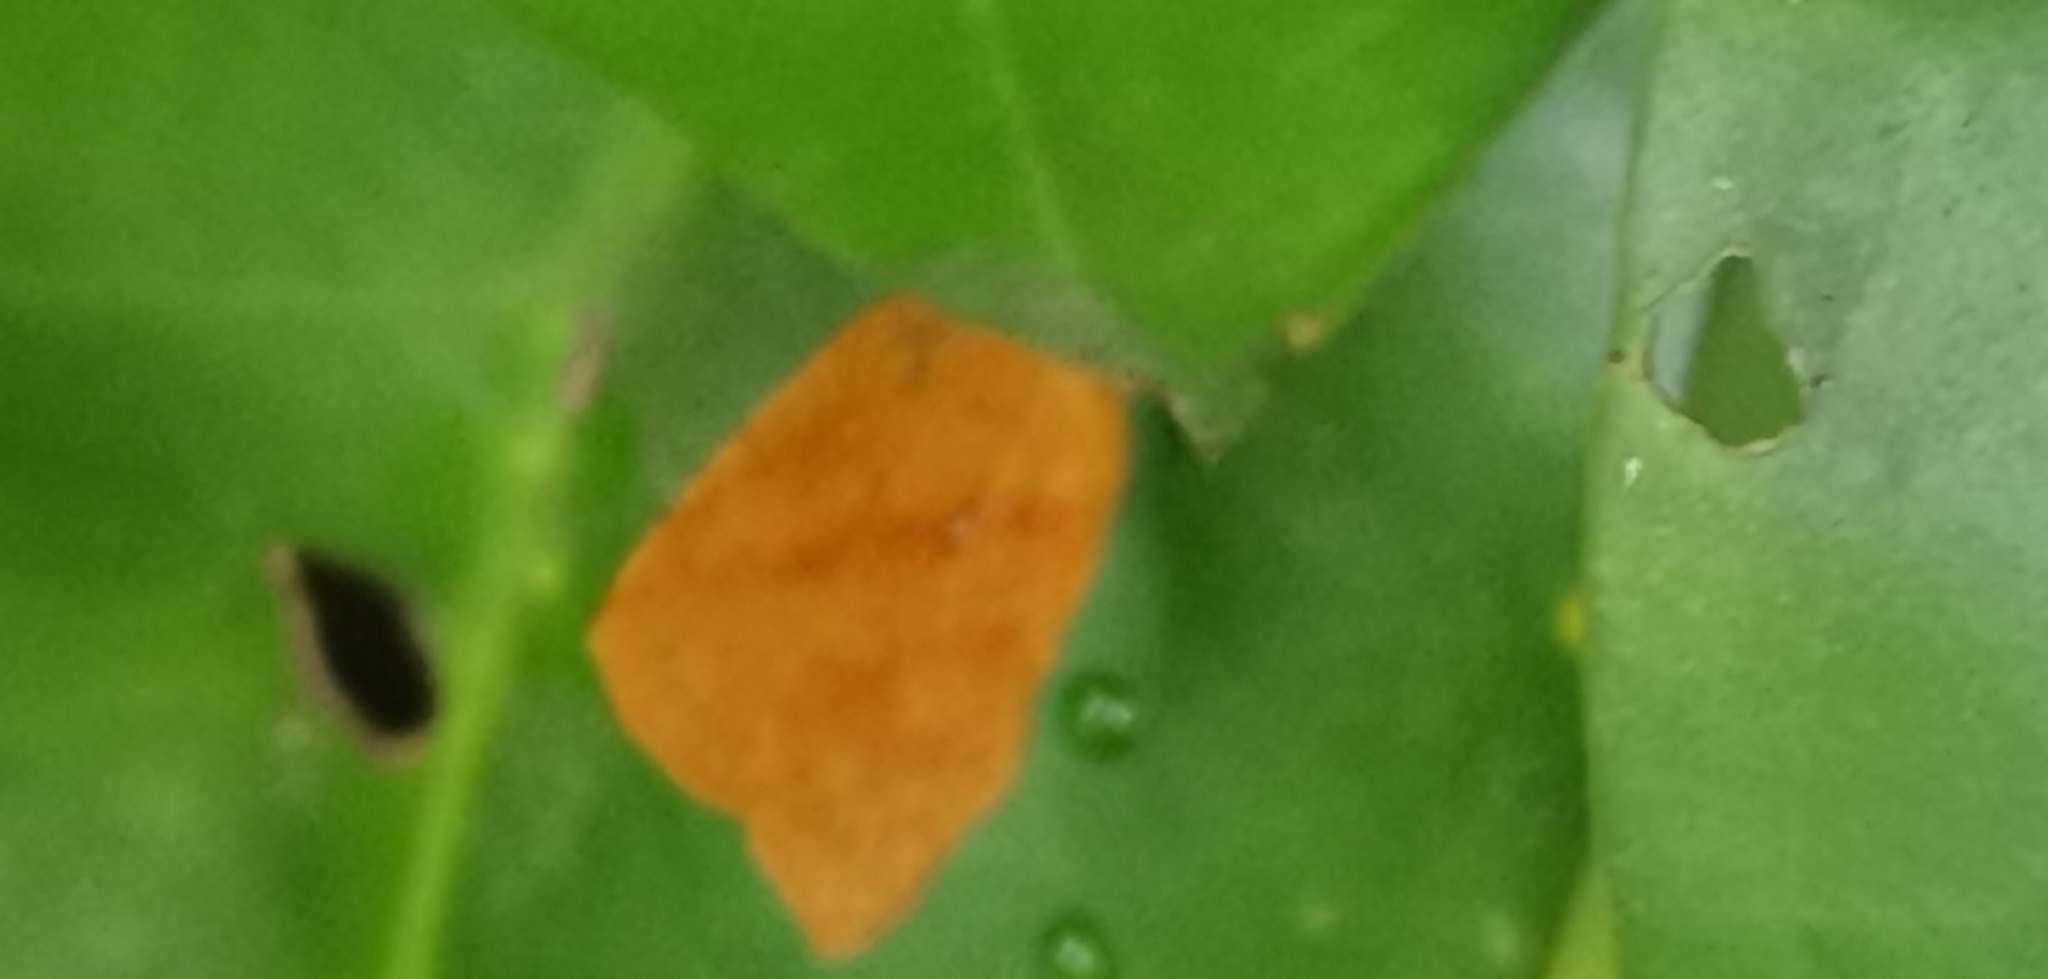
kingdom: Animalia
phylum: Arthropoda
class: Insecta
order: Lepidoptera
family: Callidulidae
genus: Tetragonus
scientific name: Tetragonus catamitus
